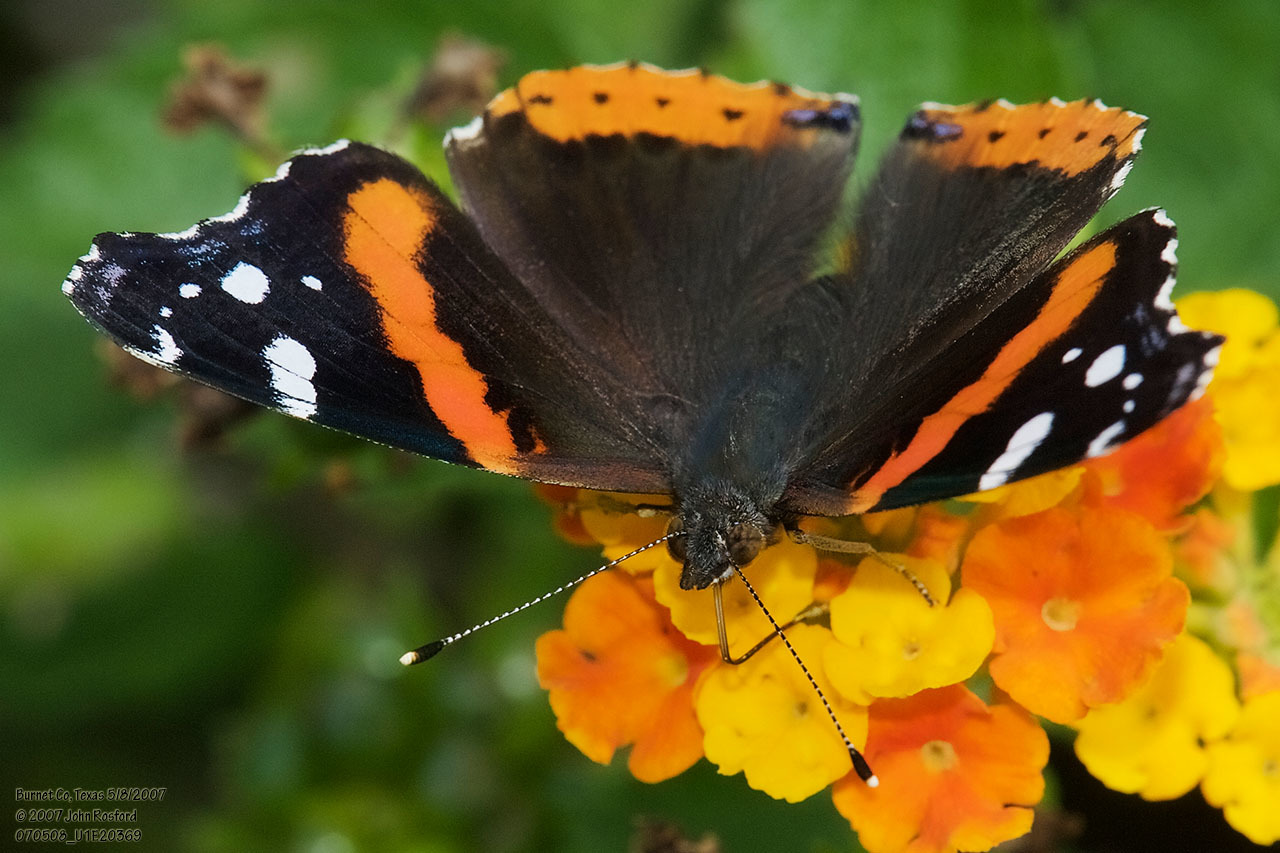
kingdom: Animalia
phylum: Arthropoda
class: Insecta
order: Lepidoptera
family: Nymphalidae
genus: Vanessa
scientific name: Vanessa atalanta
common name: Red admiral
